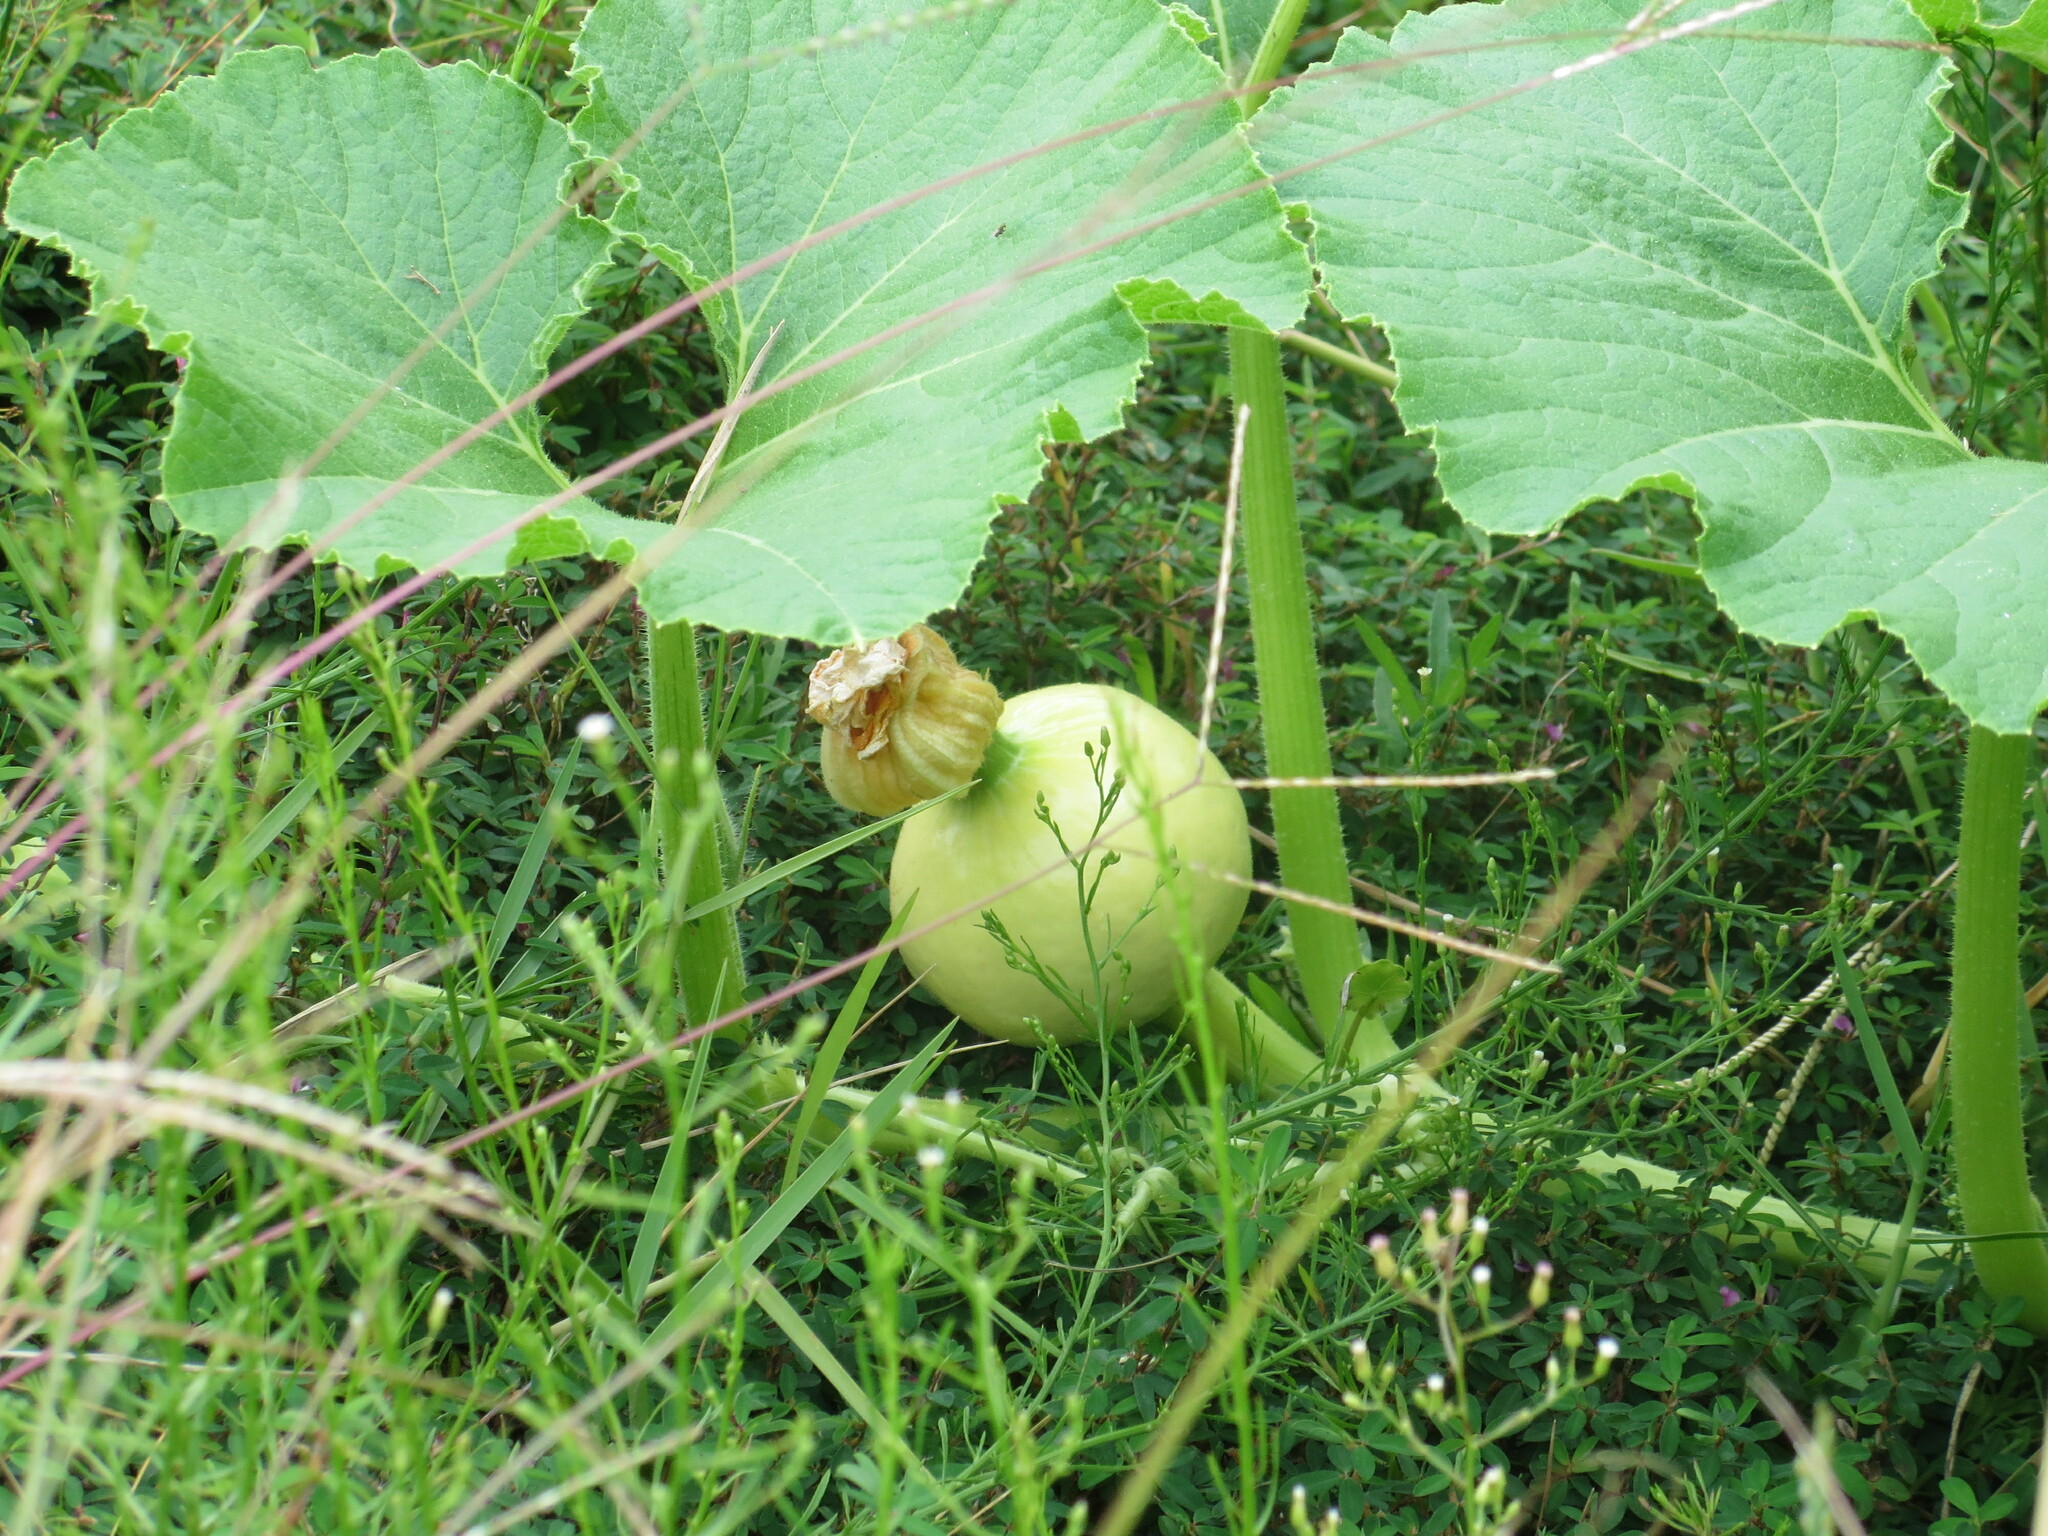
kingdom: Plantae
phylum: Tracheophyta
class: Magnoliopsida
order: Cucurbitales
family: Cucurbitaceae
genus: Cucurbita
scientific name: Cucurbita maxima
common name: Pumpkin
